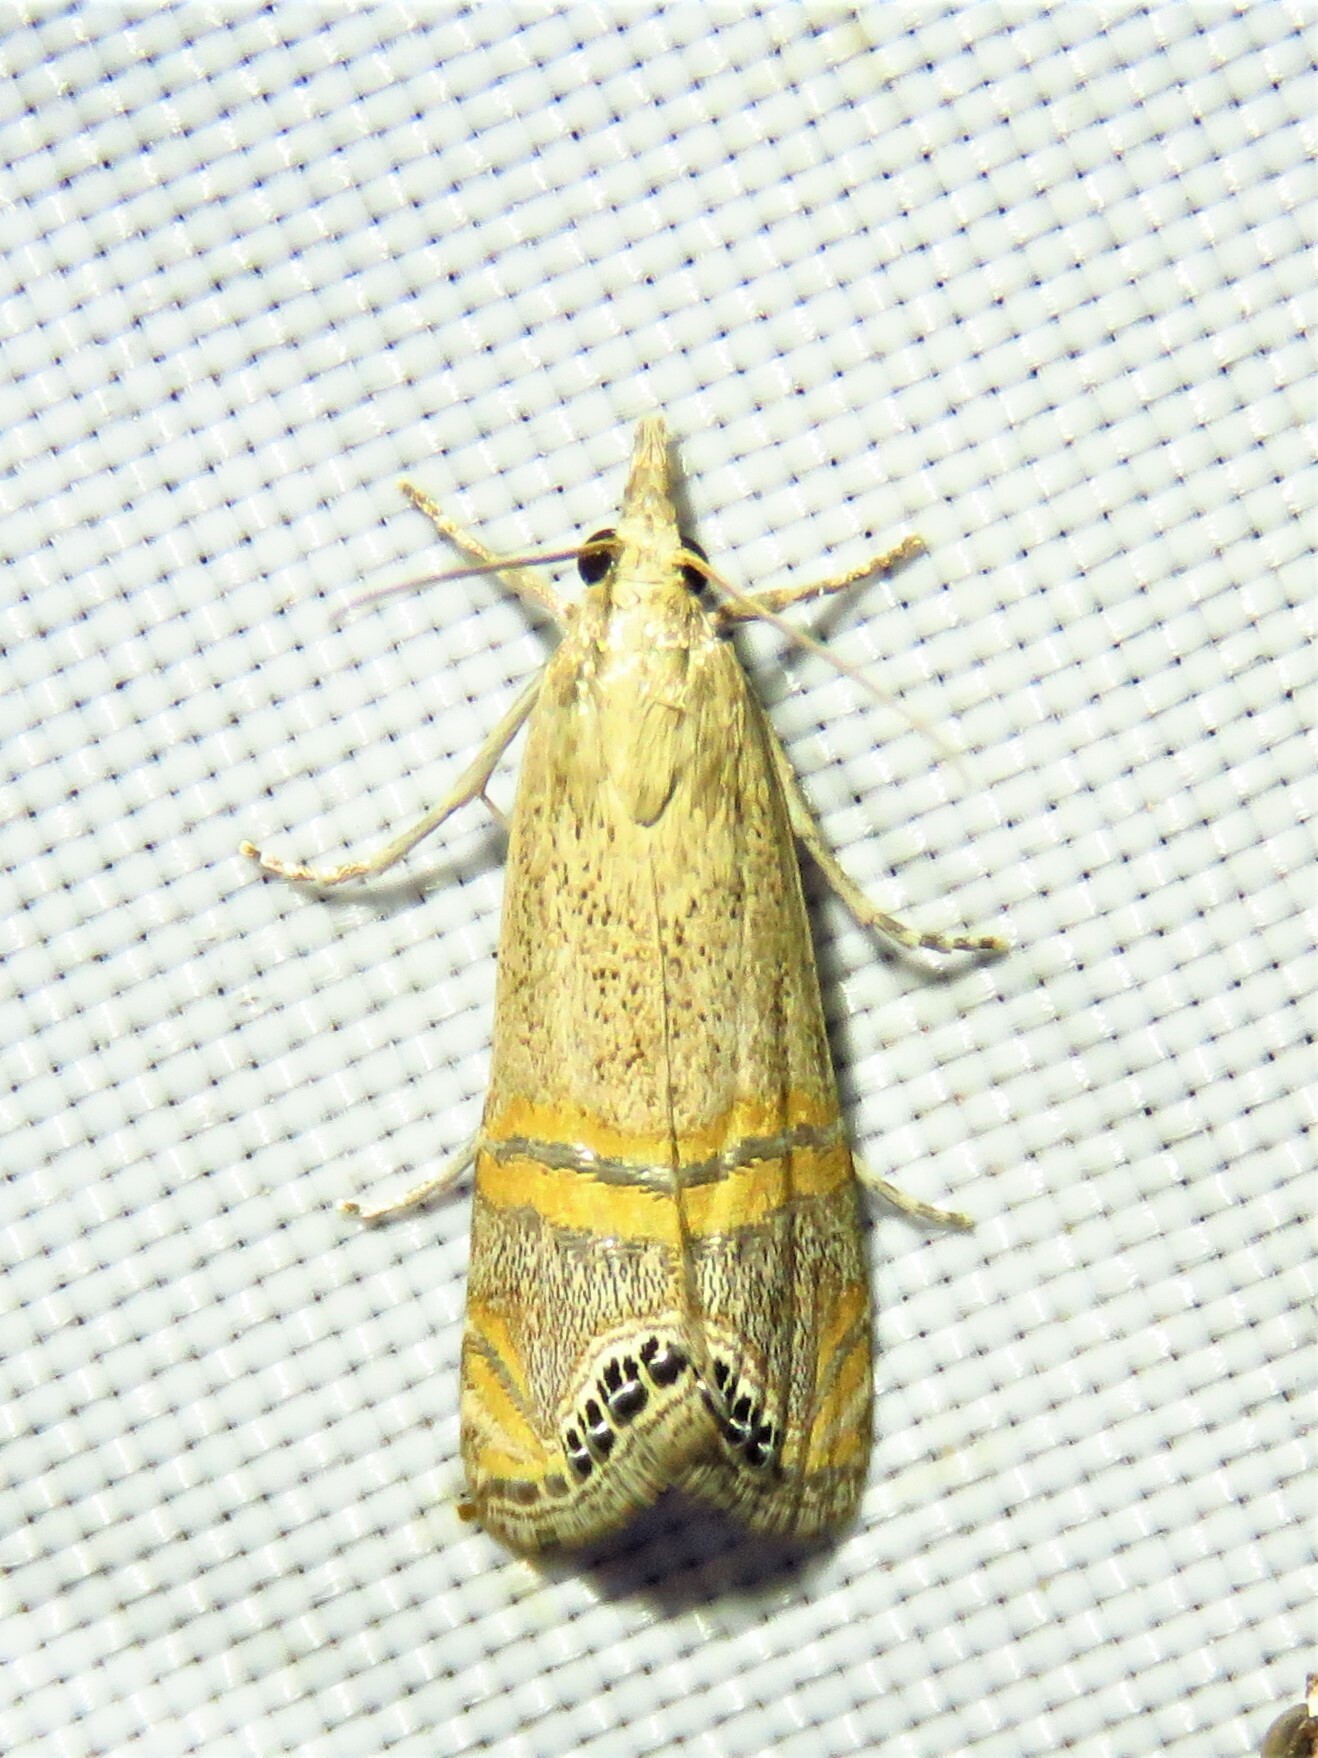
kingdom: Animalia
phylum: Arthropoda
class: Insecta
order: Lepidoptera
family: Crambidae
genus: Euchromius
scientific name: Euchromius ocellea
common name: Necklace veneer moth
